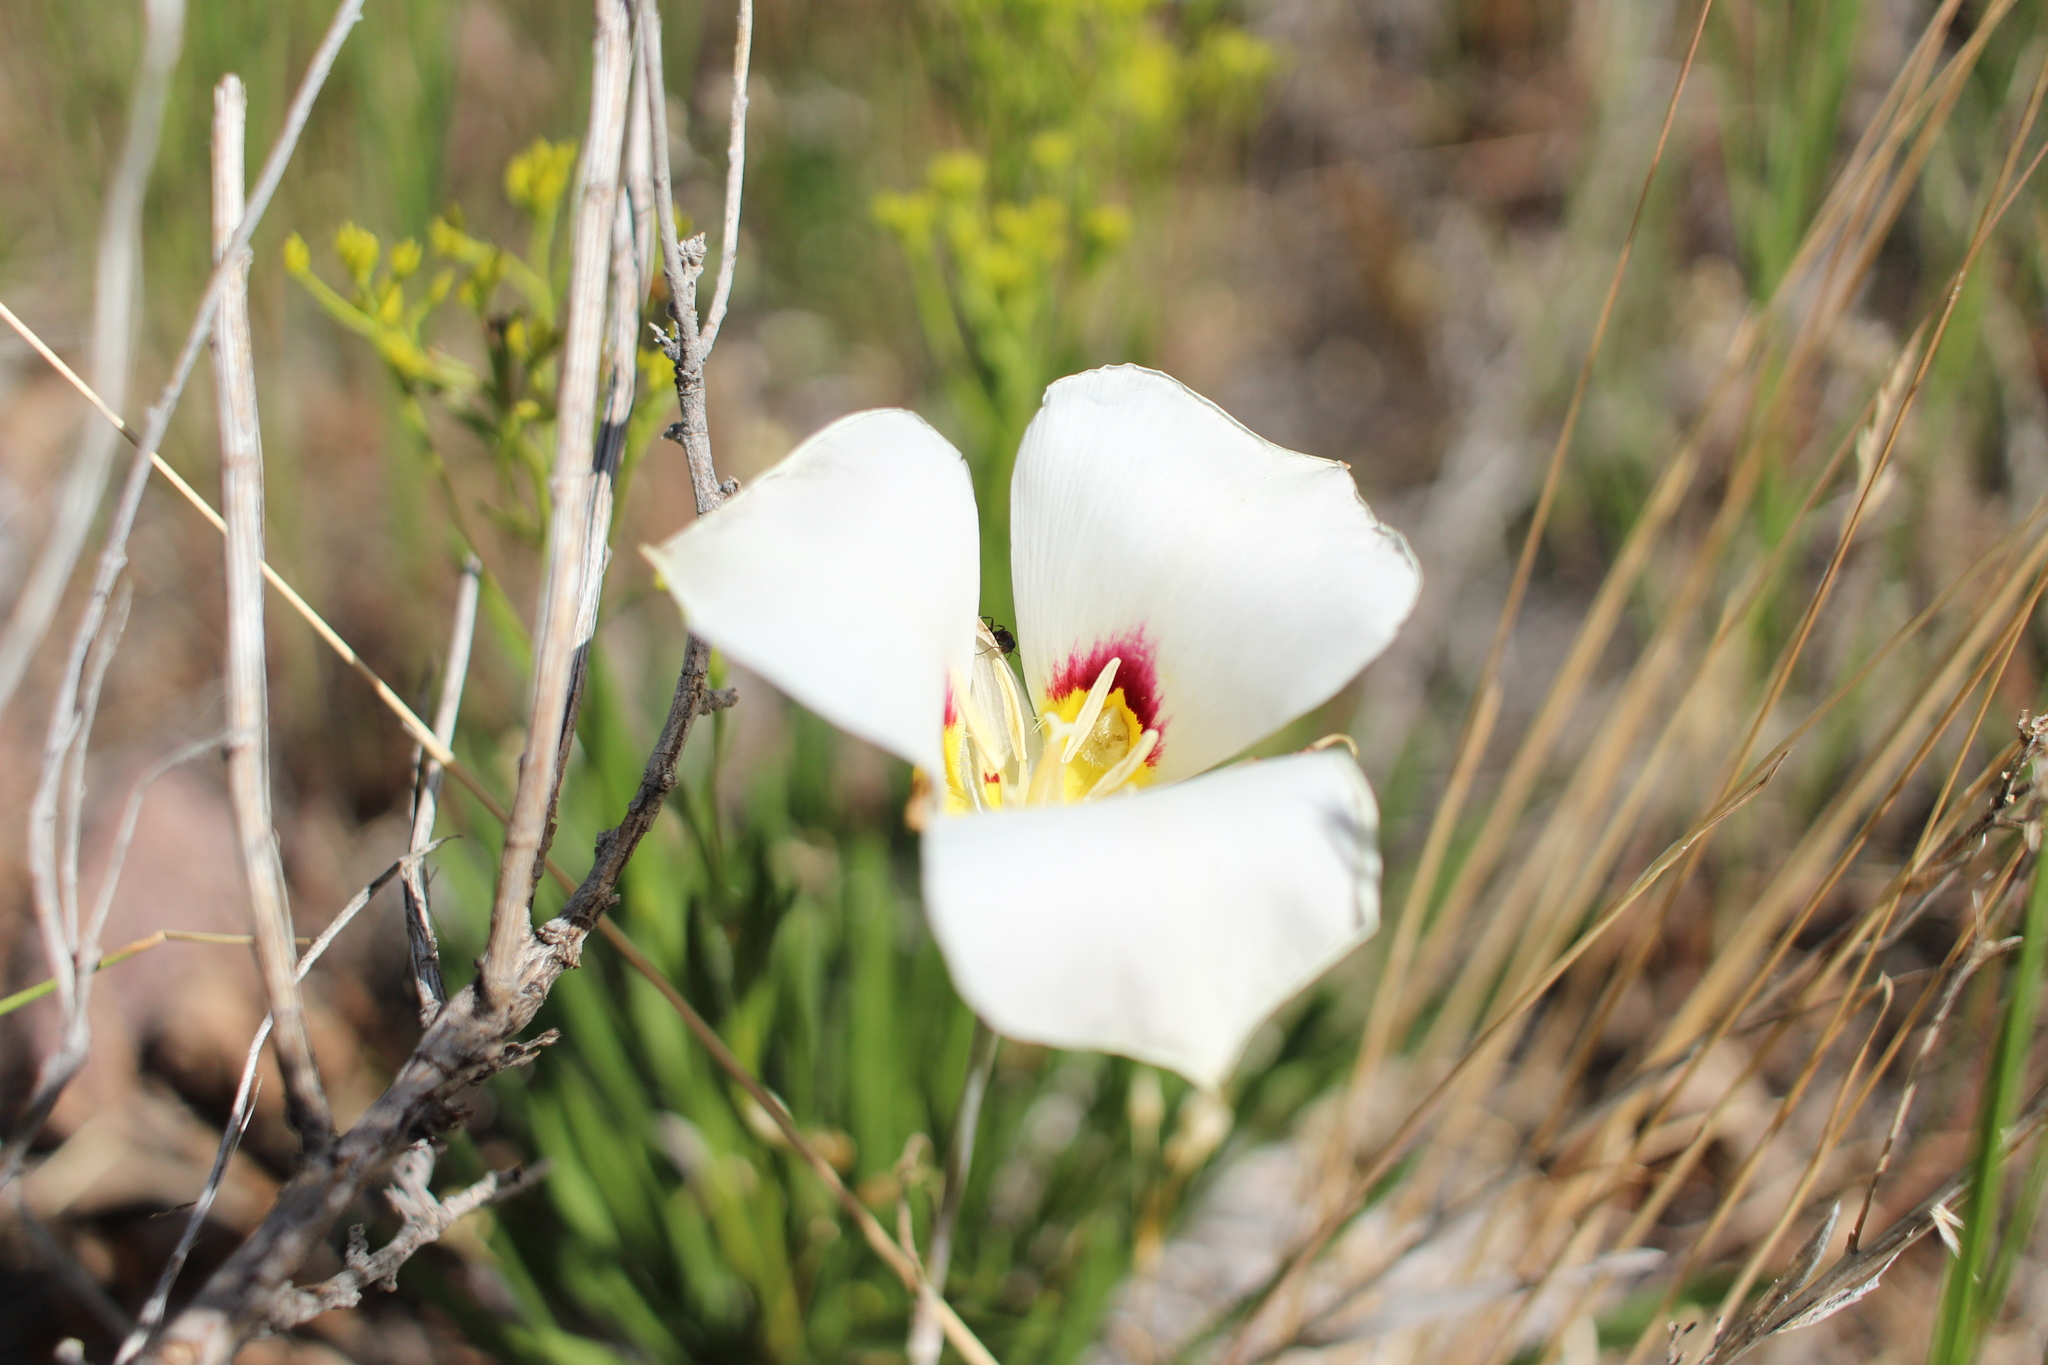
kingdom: Plantae
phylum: Tracheophyta
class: Liliopsida
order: Liliales
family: Liliaceae
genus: Calochortus
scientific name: Calochortus nuttallii
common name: Sego-lily
